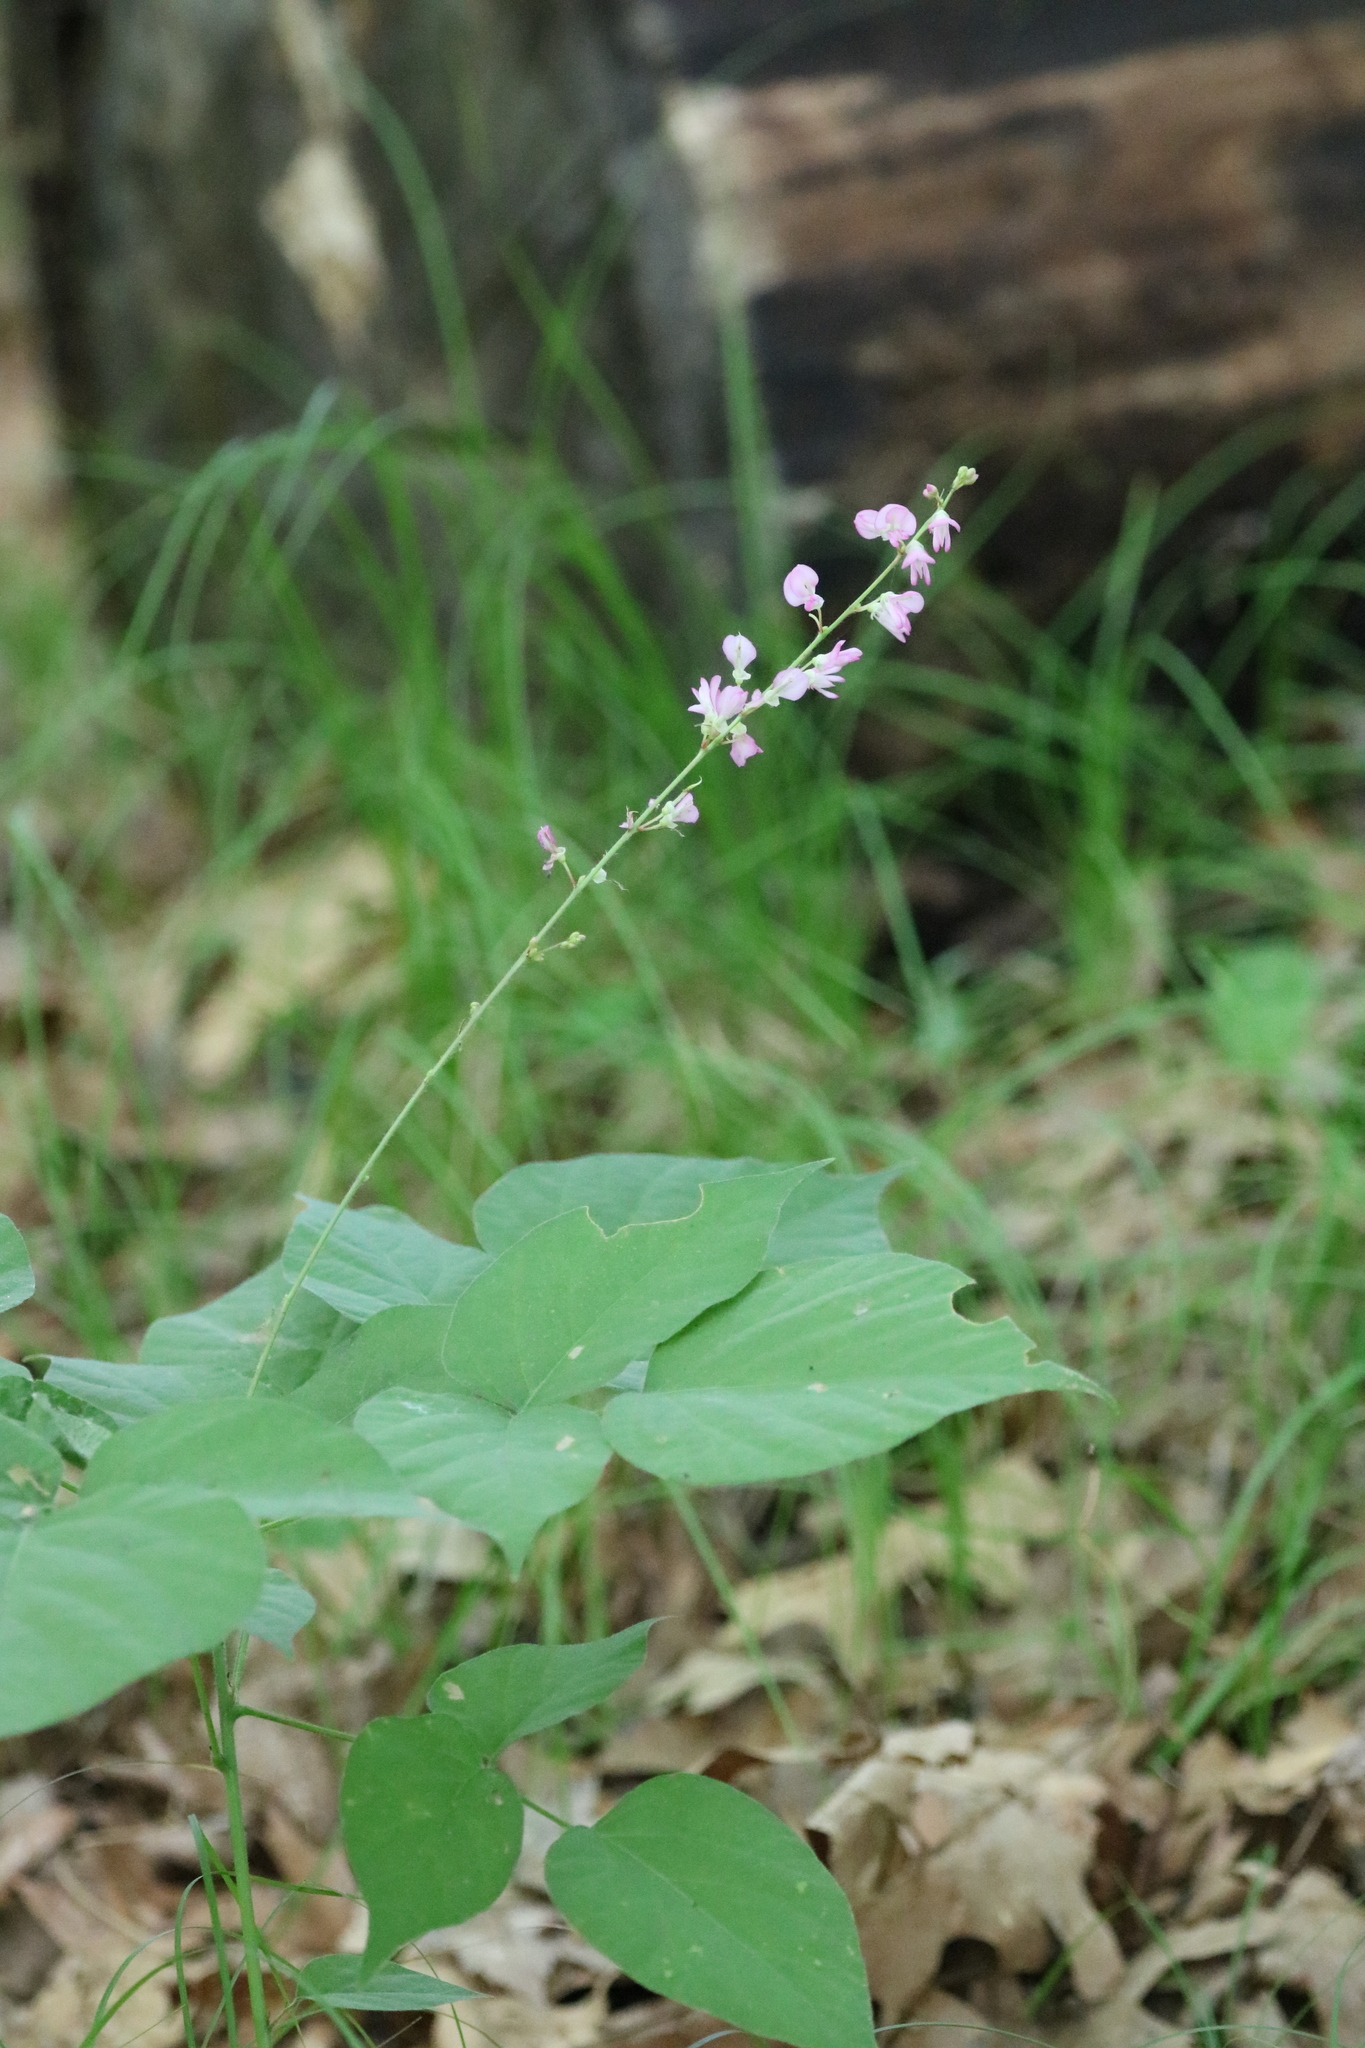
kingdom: Plantae
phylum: Tracheophyta
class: Magnoliopsida
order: Fabales
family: Fabaceae
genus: Hylodesmum
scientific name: Hylodesmum glutinosum
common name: Clustered-leaved tick-trefoil
